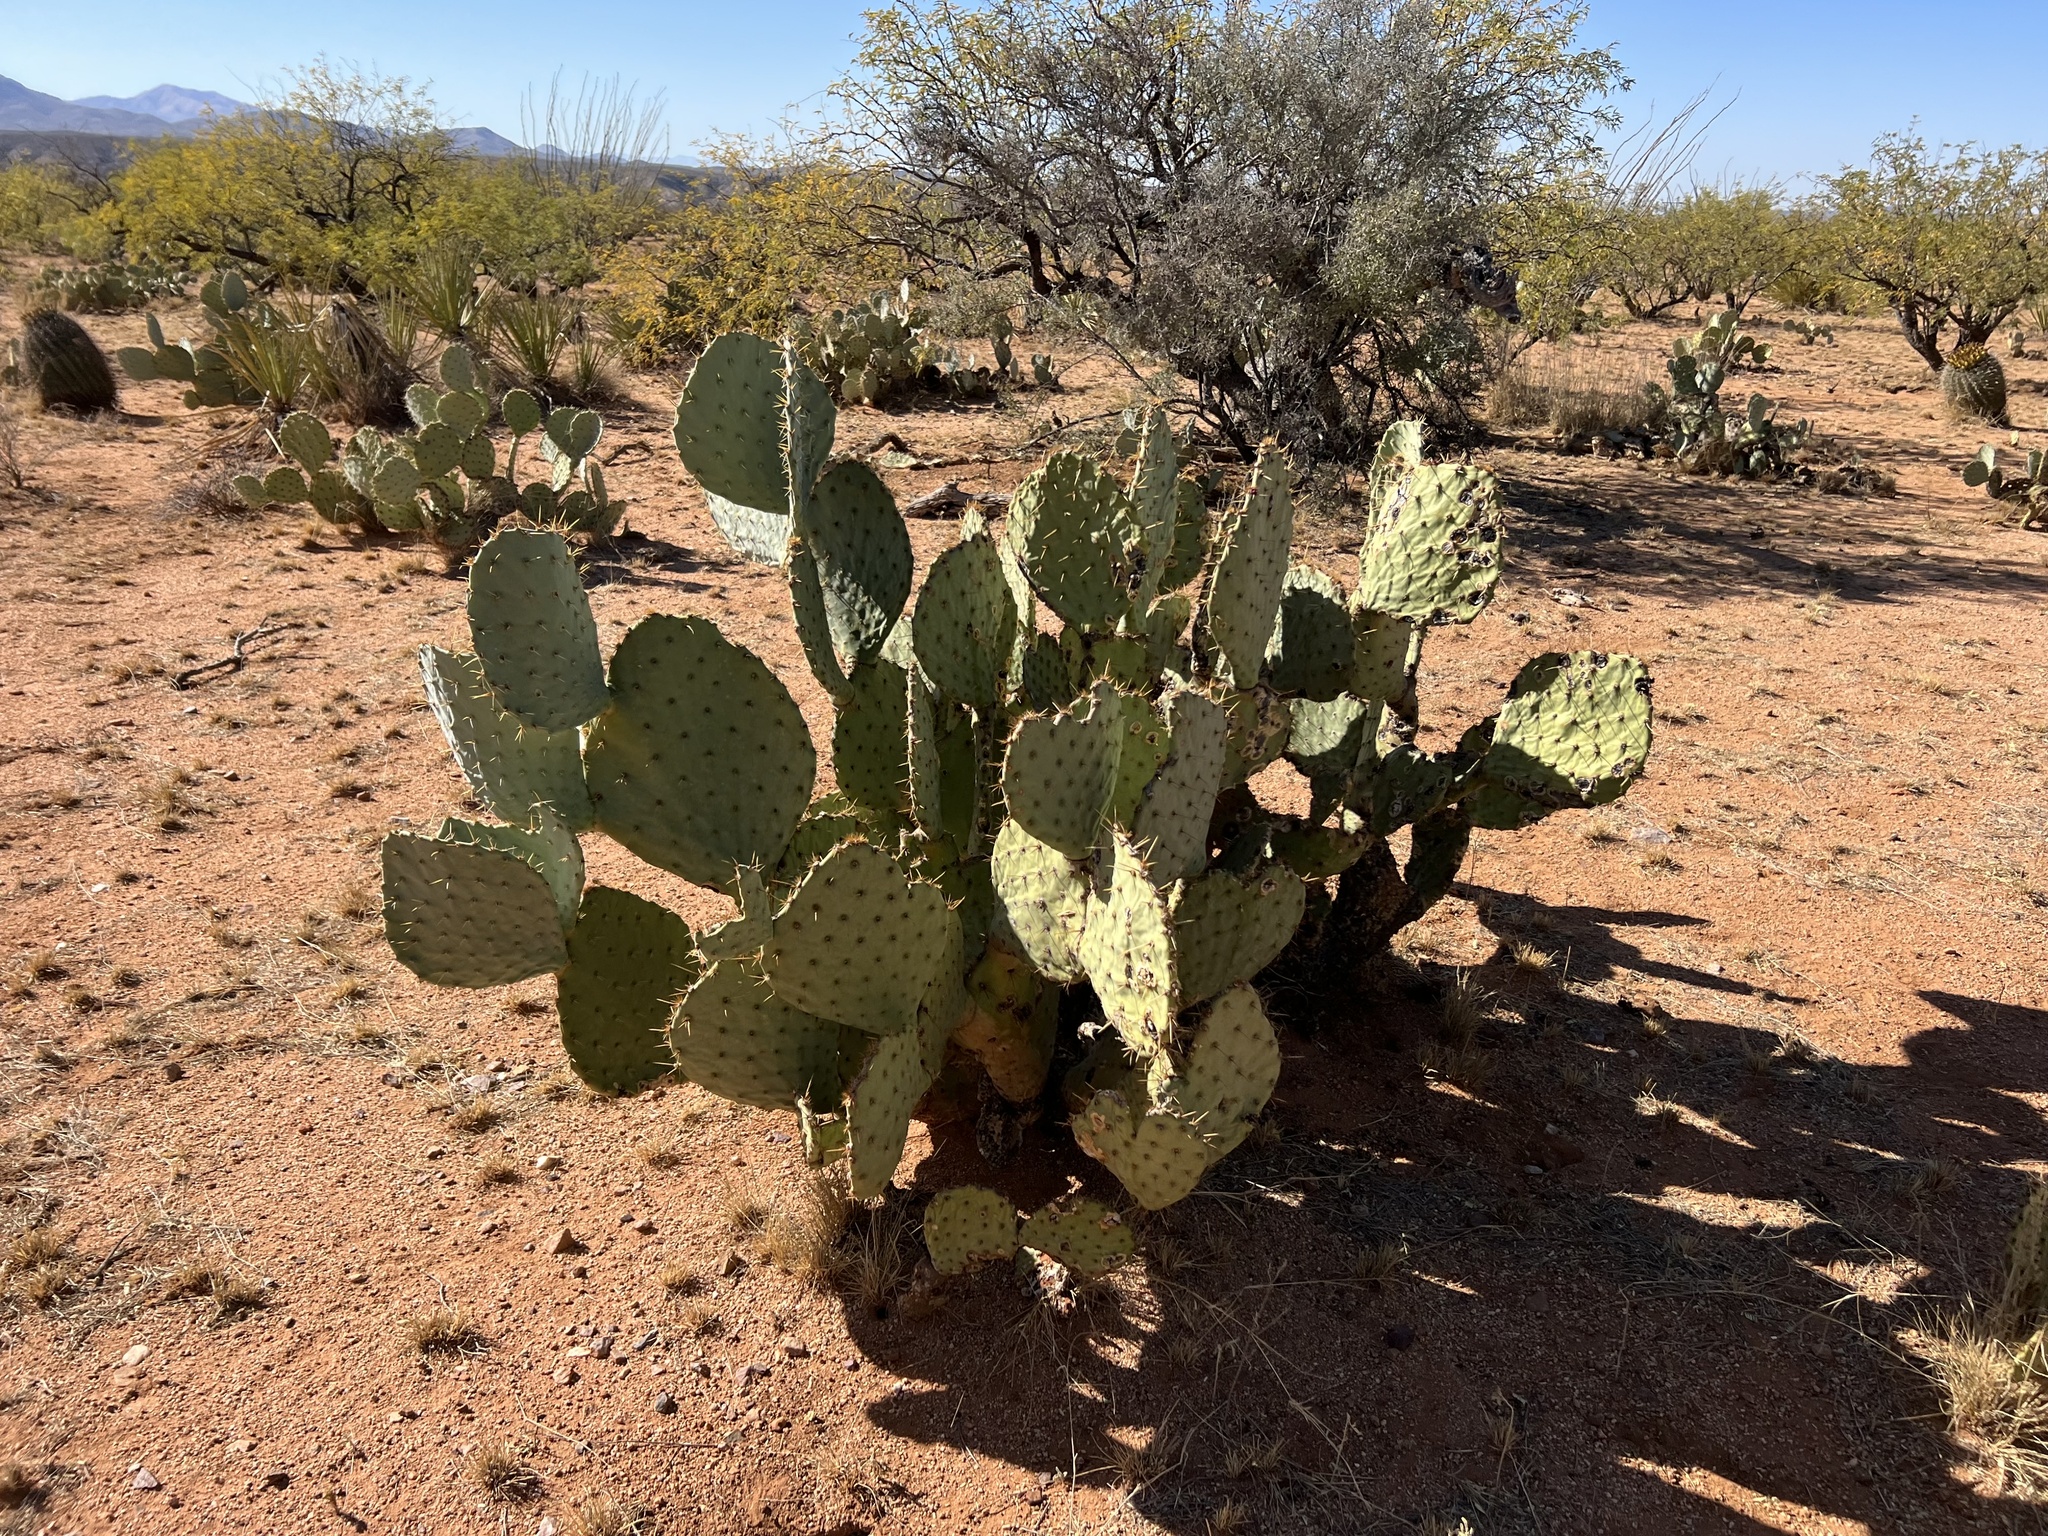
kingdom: Plantae
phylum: Tracheophyta
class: Magnoliopsida
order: Caryophyllales
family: Cactaceae
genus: Opuntia
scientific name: Opuntia engelmannii
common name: Cactus-apple
